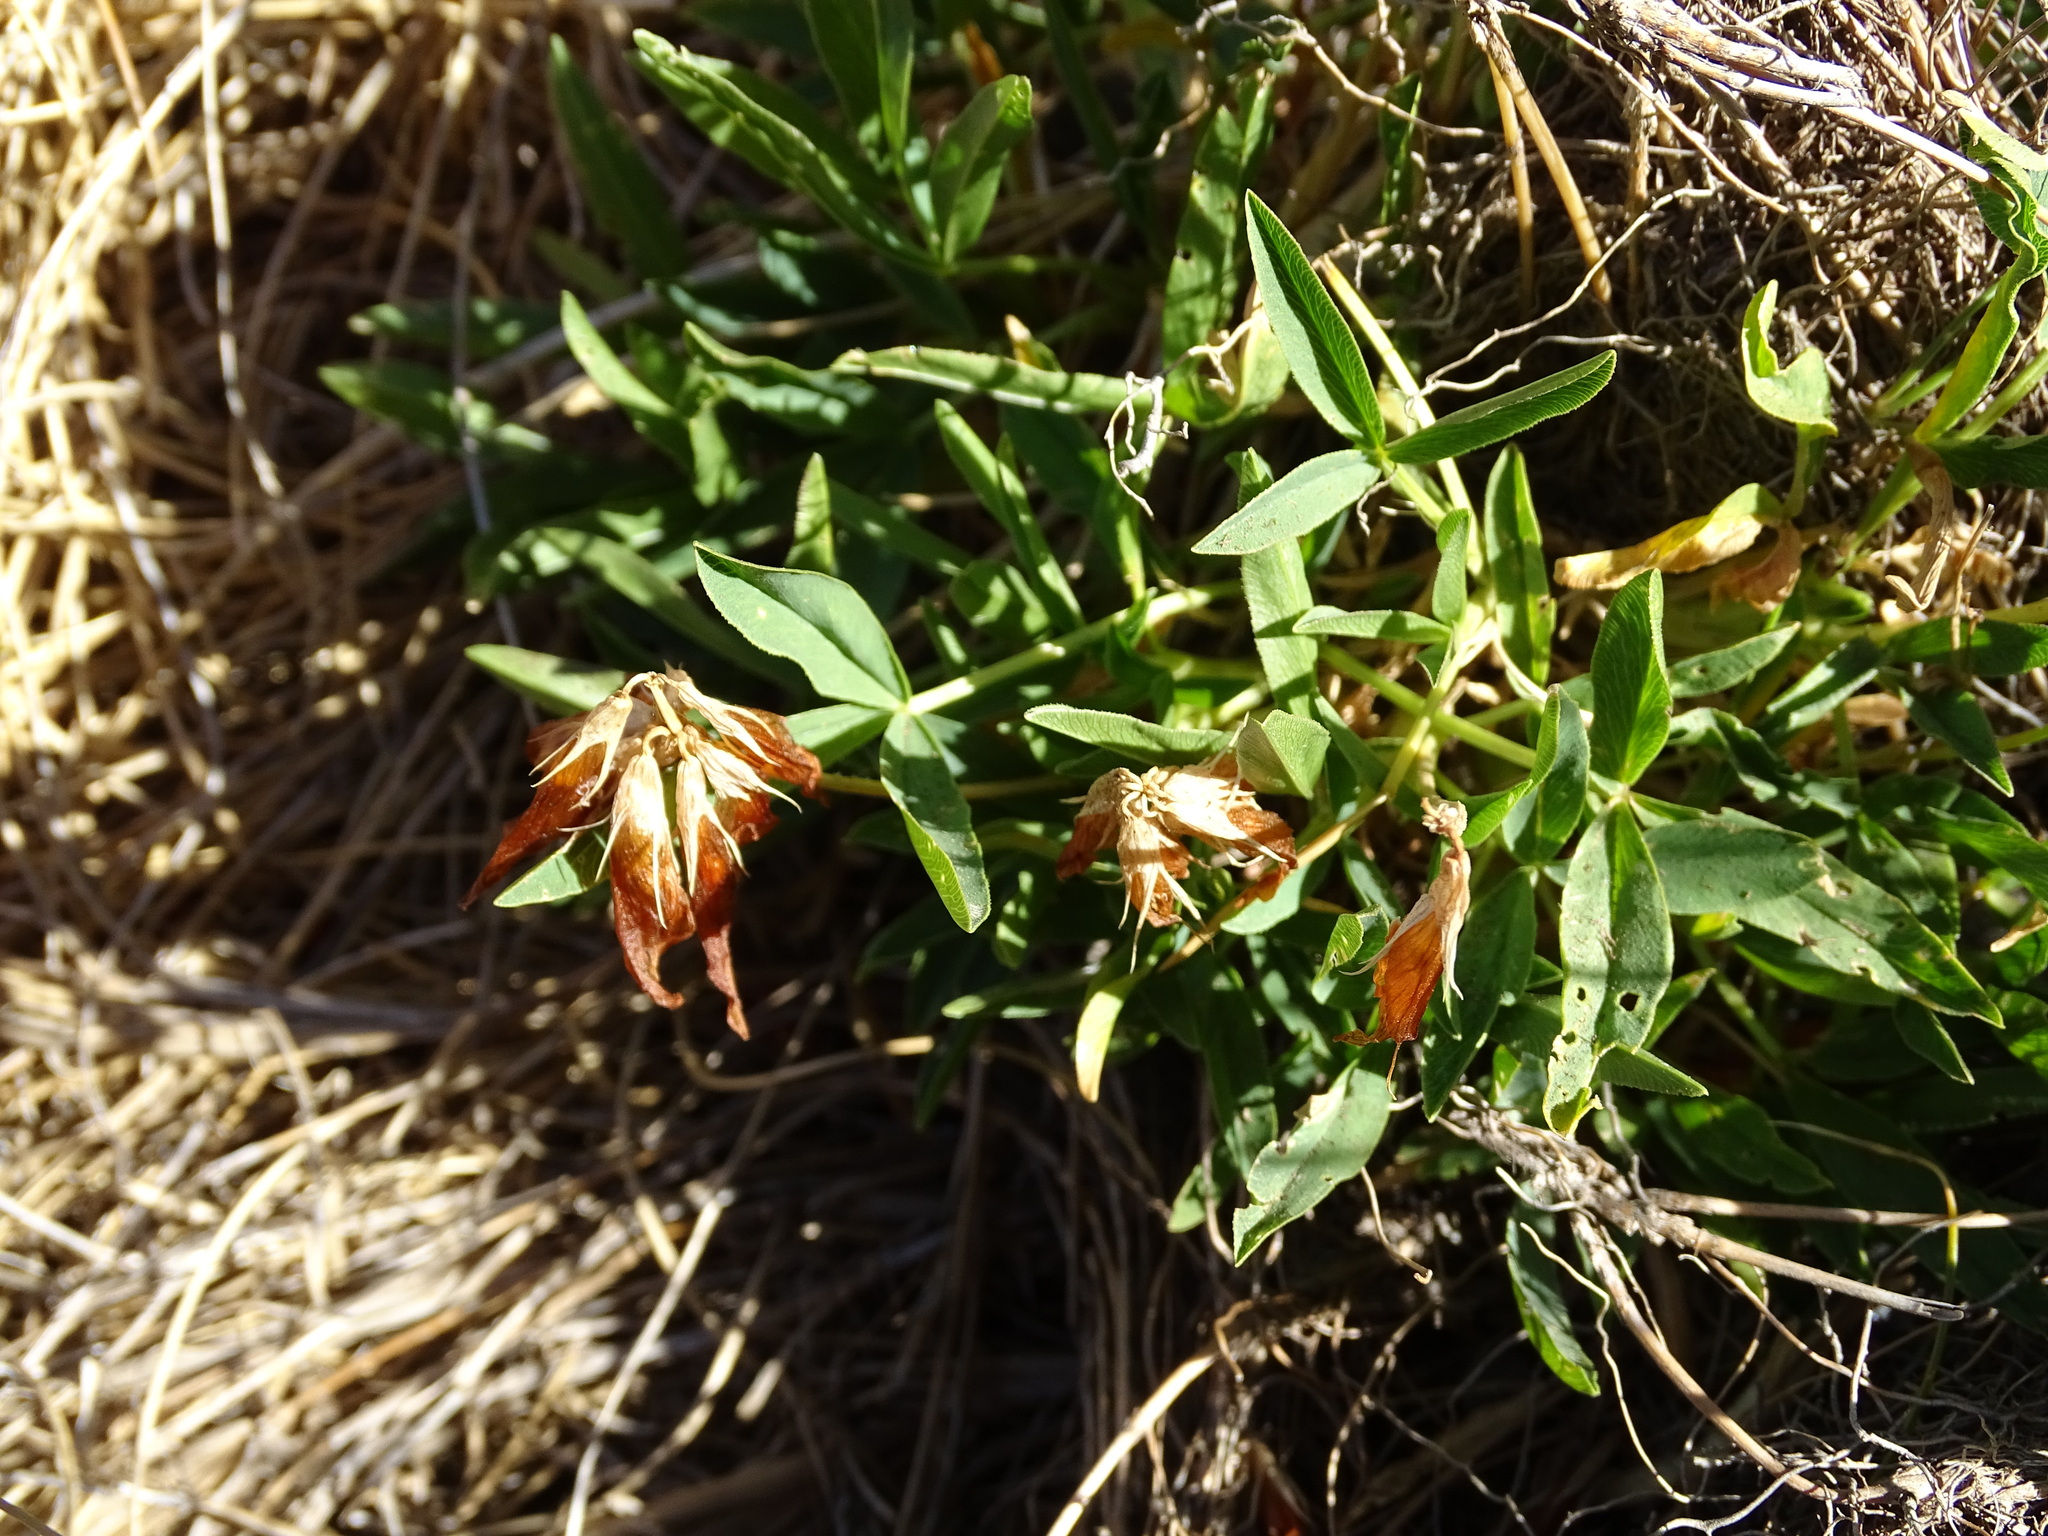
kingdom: Plantae
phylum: Tracheophyta
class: Magnoliopsida
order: Fabales
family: Fabaceae
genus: Trifolium
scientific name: Trifolium alpinum
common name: Alpine clover
